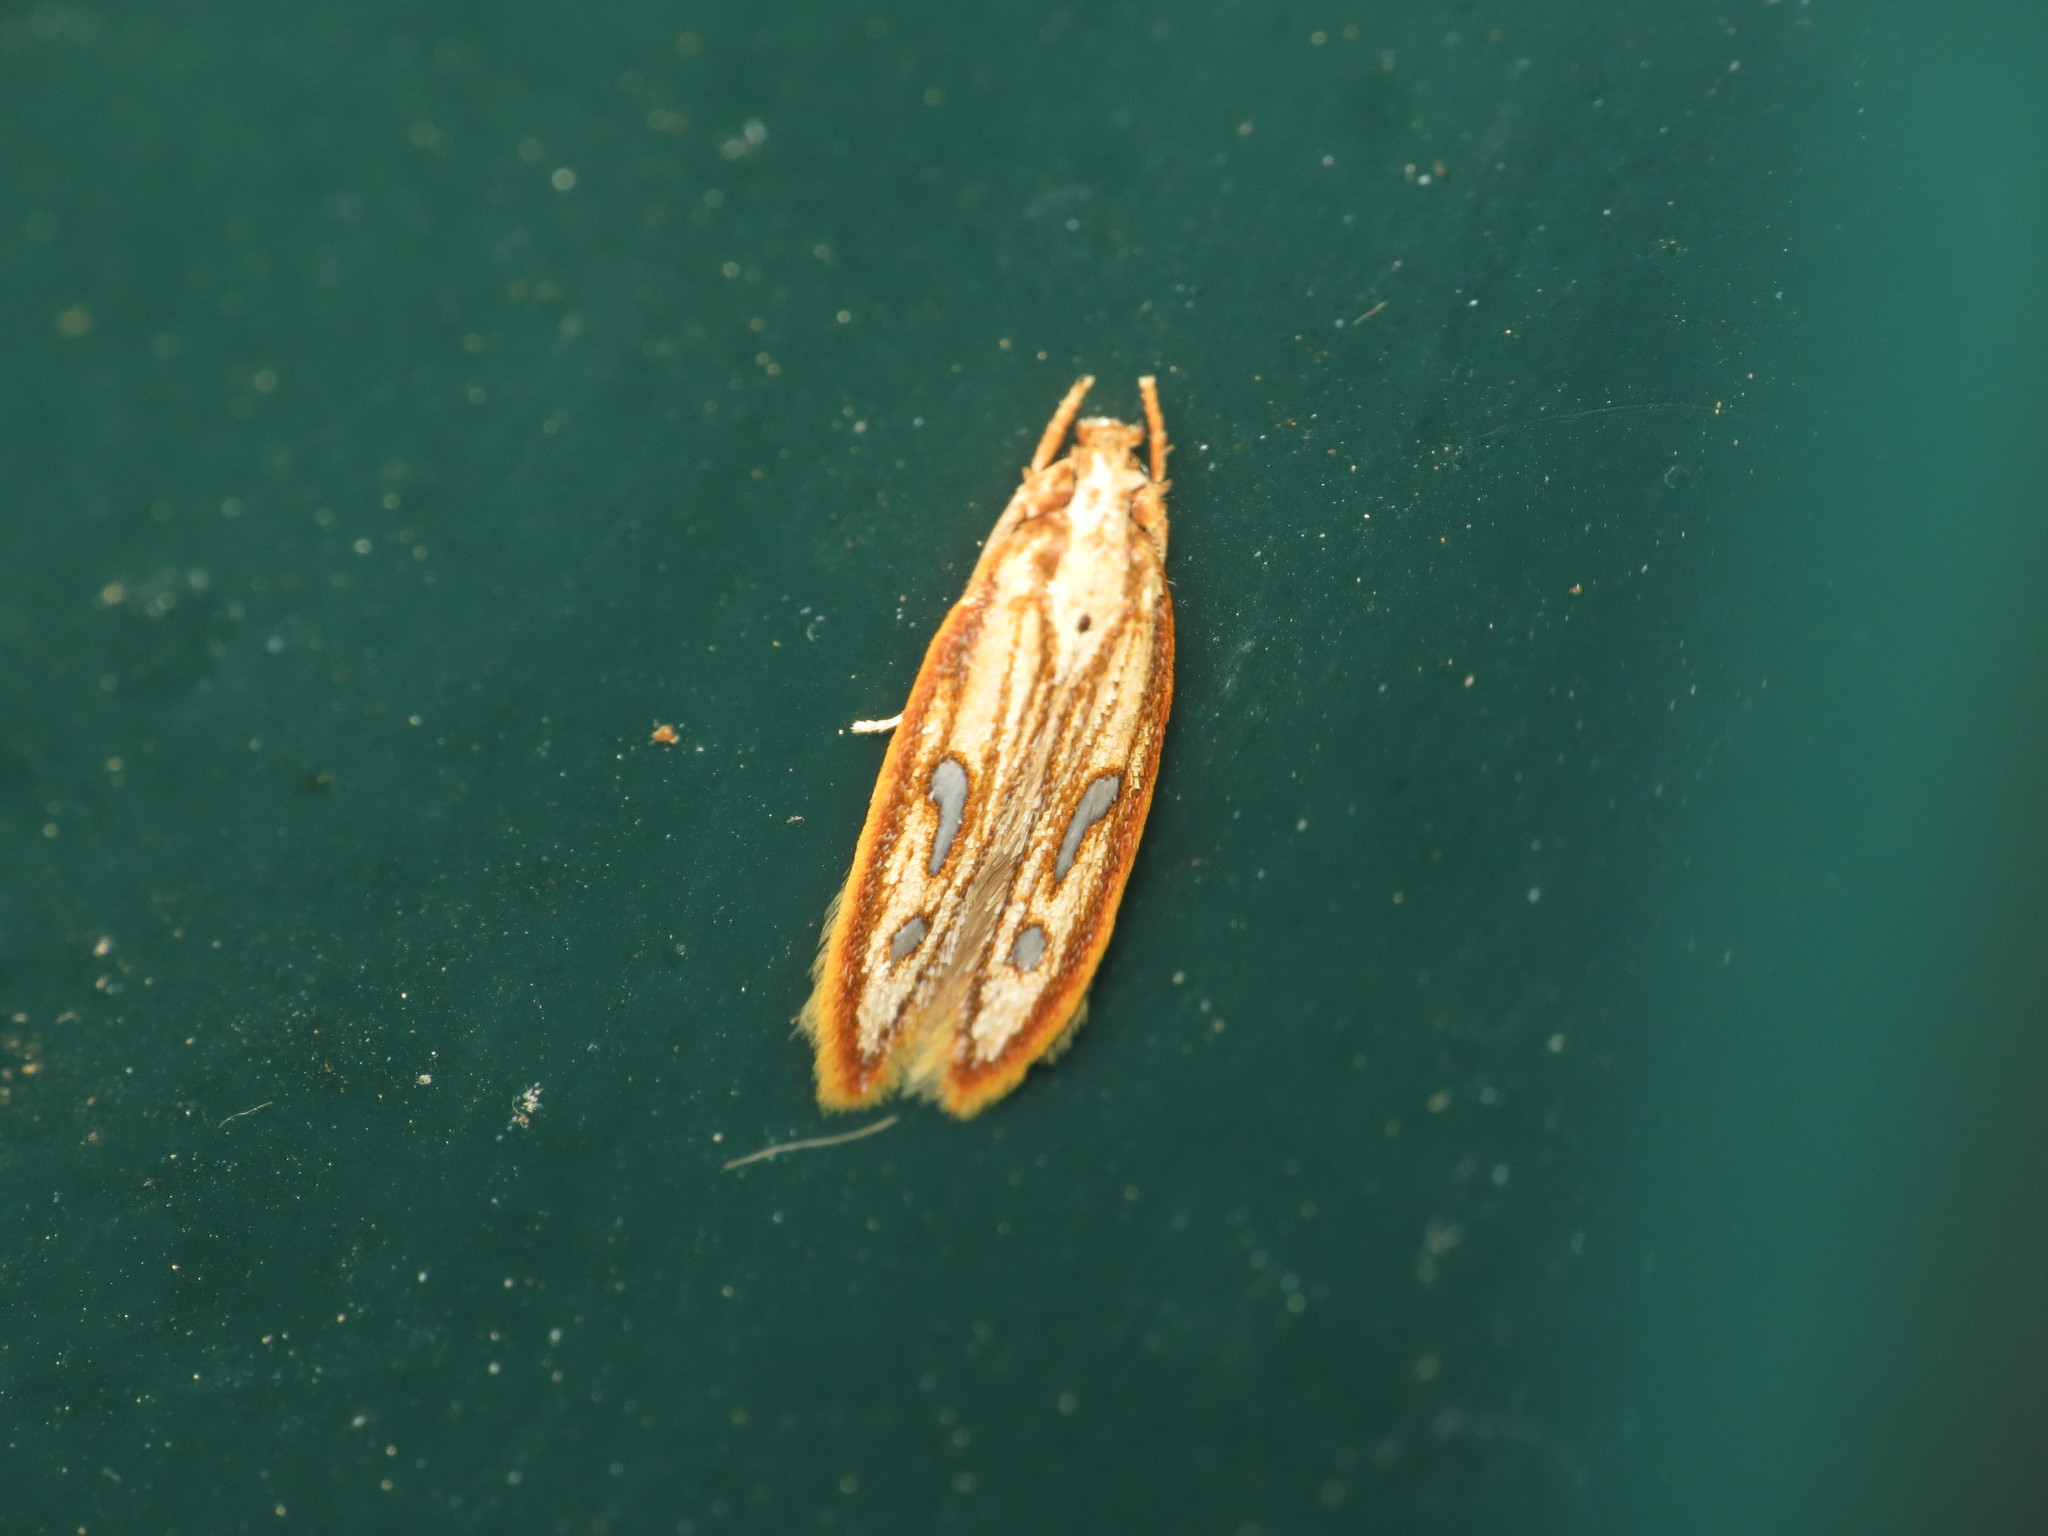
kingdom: Animalia
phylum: Arthropoda
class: Insecta
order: Lepidoptera
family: Coleophoridae
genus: Homaledra
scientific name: Homaledra heptathalama
